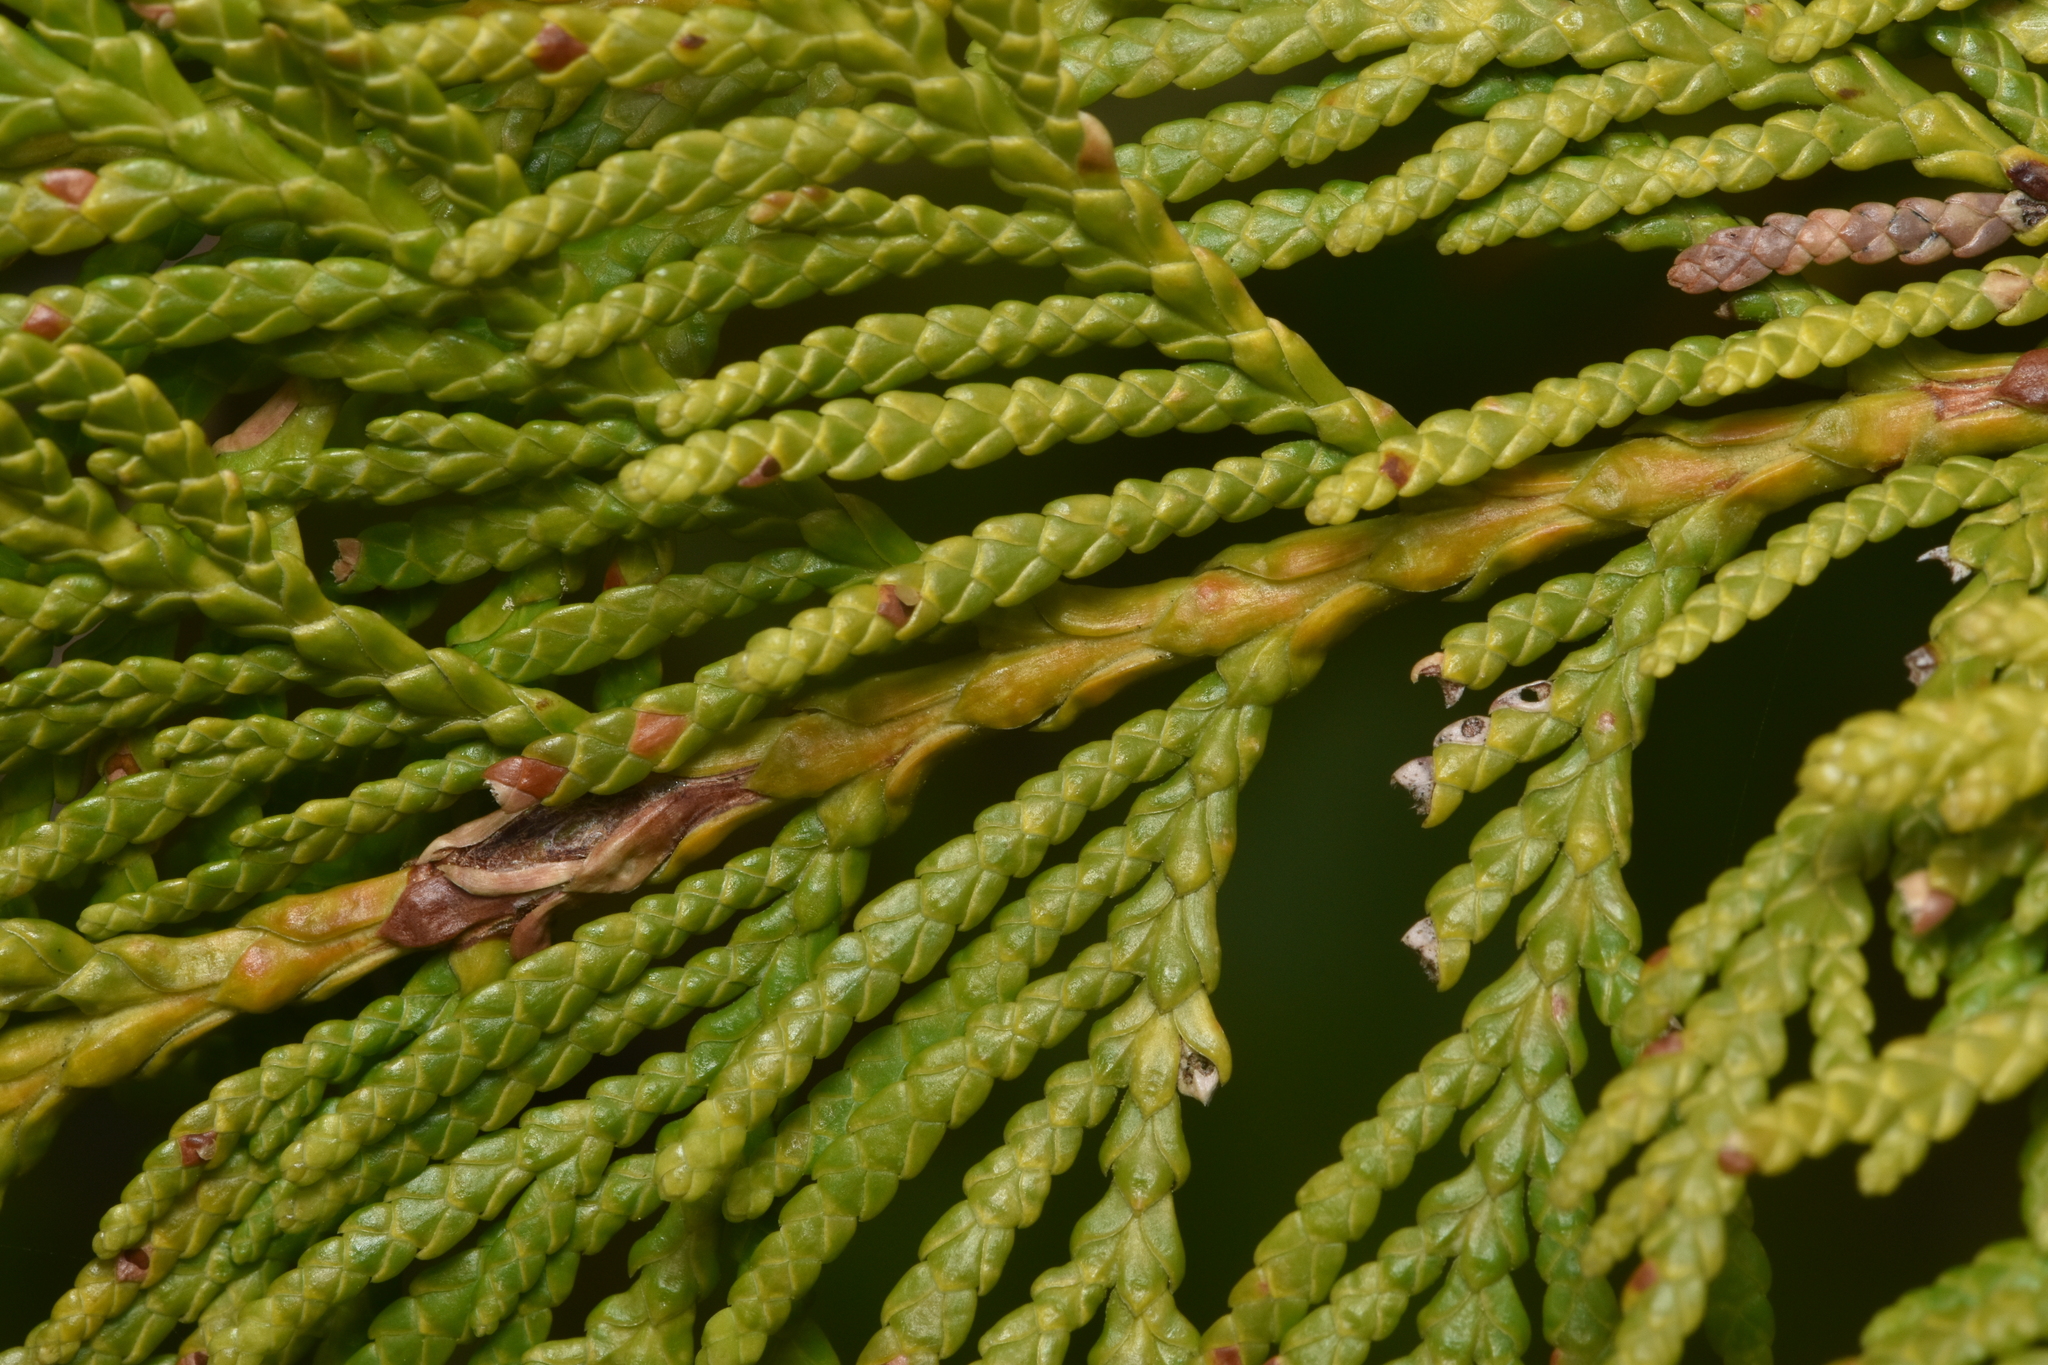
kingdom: Plantae
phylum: Tracheophyta
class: Pinopsida
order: Pinales
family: Cupressaceae
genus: Thuja
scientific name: Thuja plicata
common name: Western red-cedar
